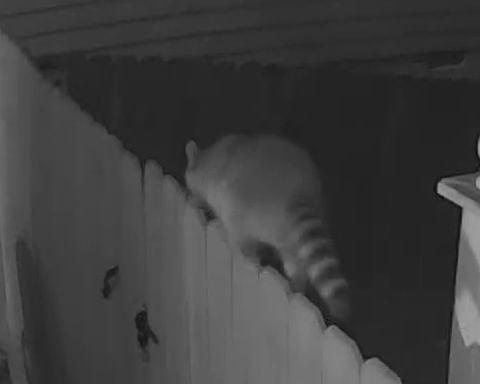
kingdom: Animalia
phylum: Chordata
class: Mammalia
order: Carnivora
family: Procyonidae
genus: Procyon
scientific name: Procyon lotor
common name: Raccoon
